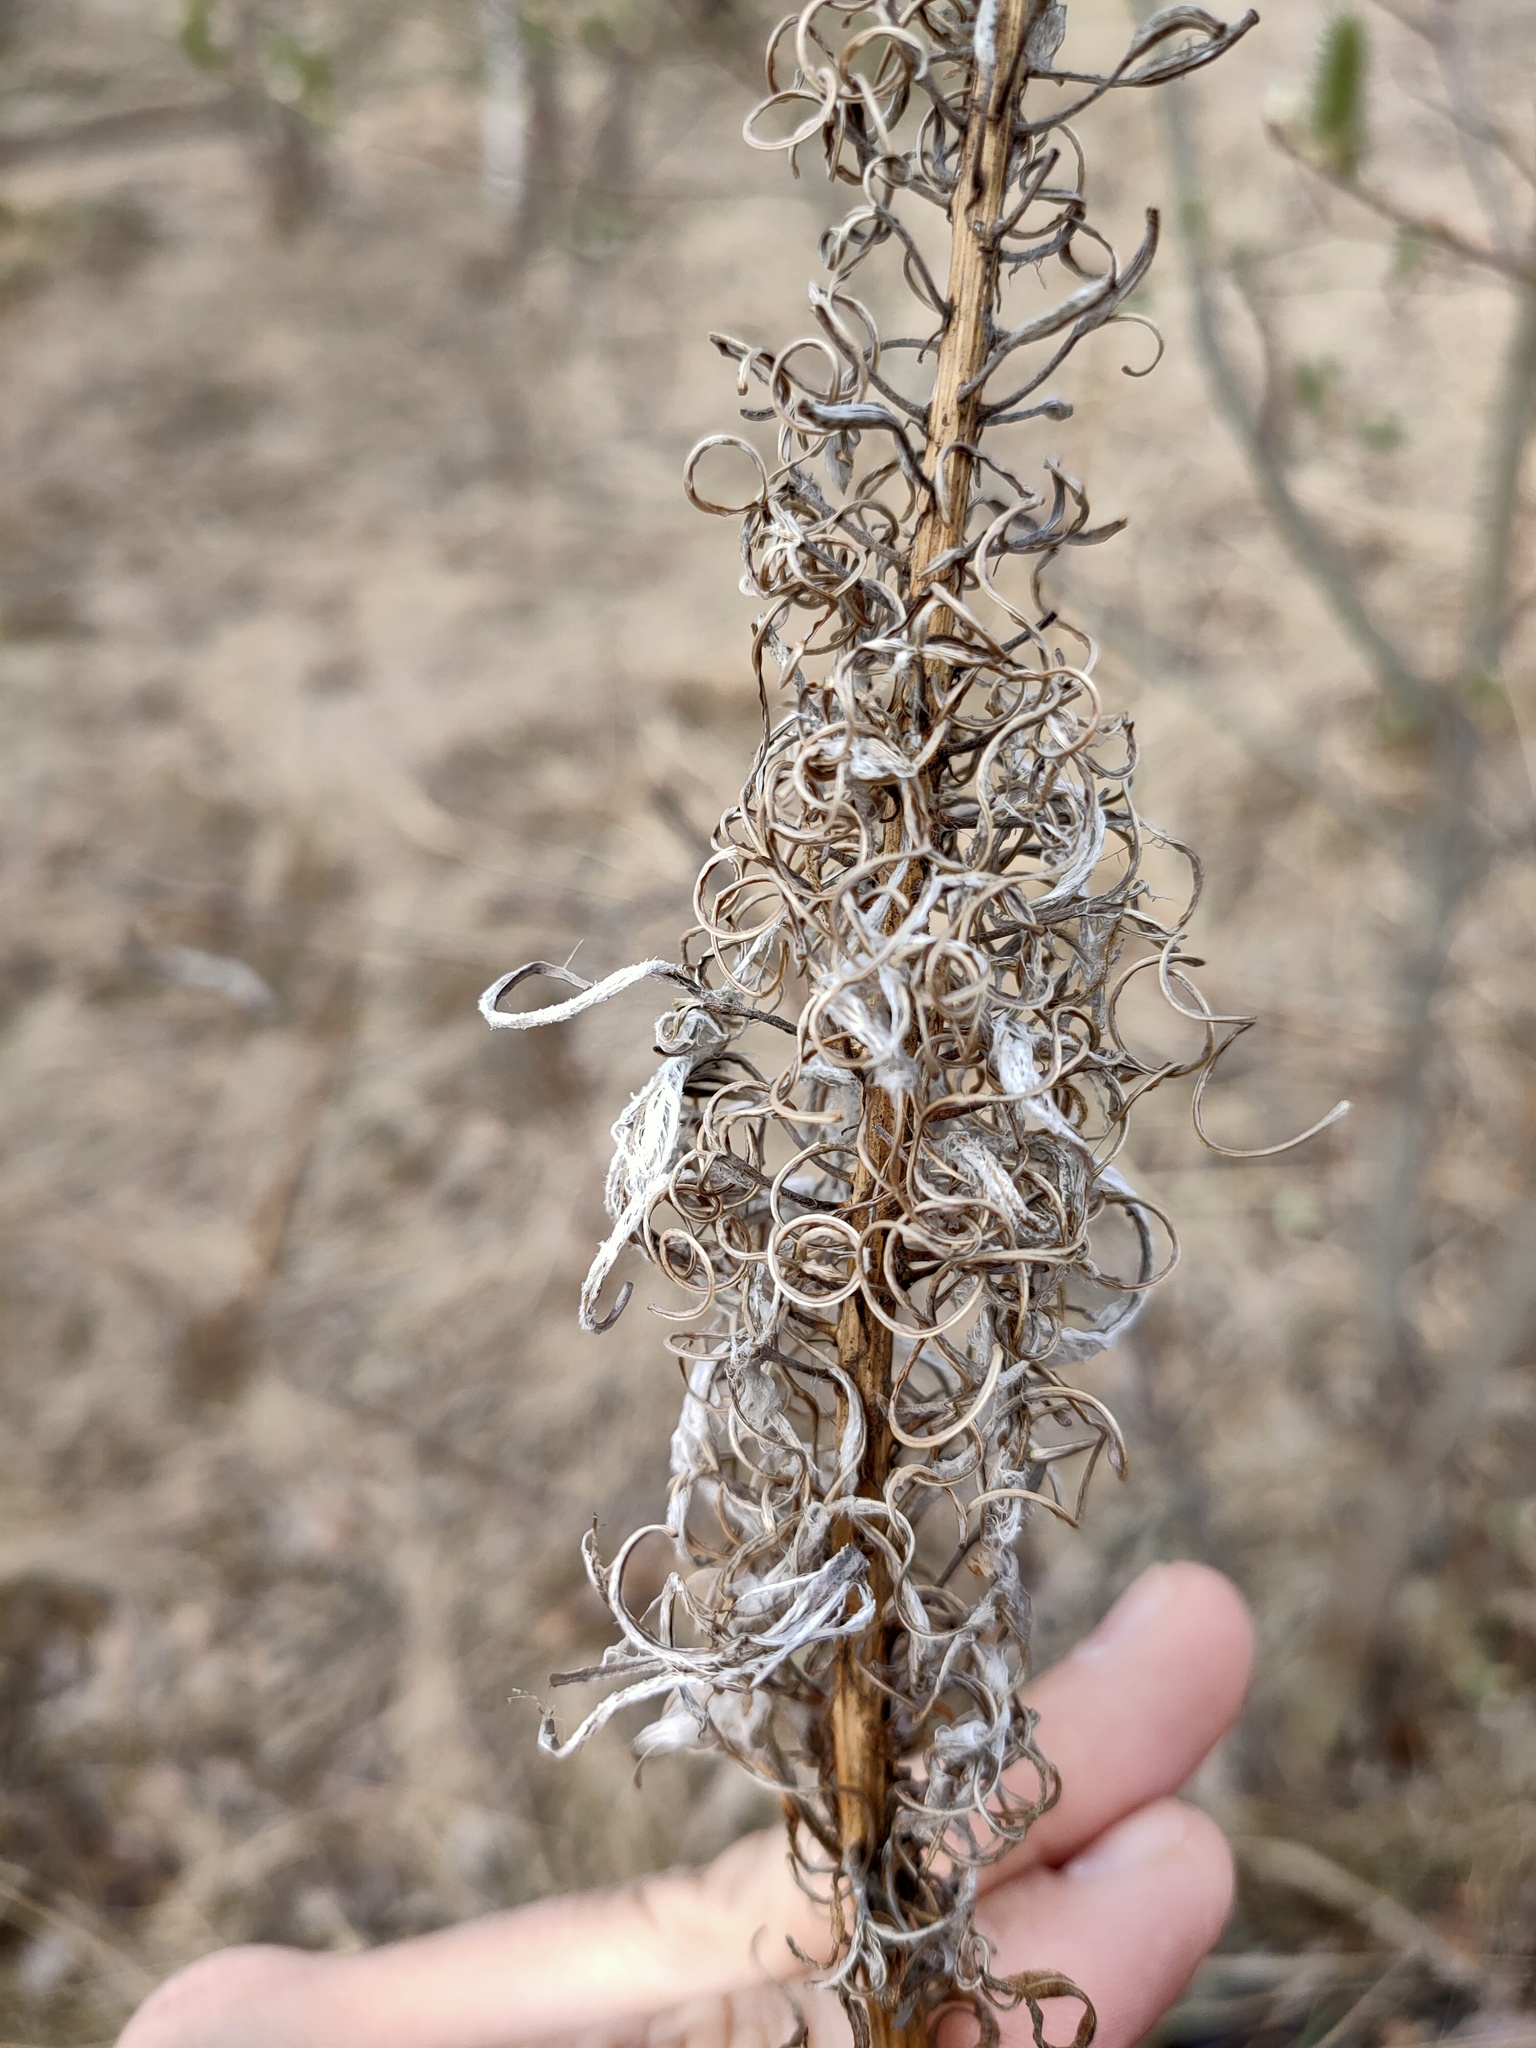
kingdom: Plantae
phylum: Tracheophyta
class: Magnoliopsida
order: Myrtales
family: Onagraceae
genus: Chamaenerion
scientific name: Chamaenerion angustifolium
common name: Fireweed
